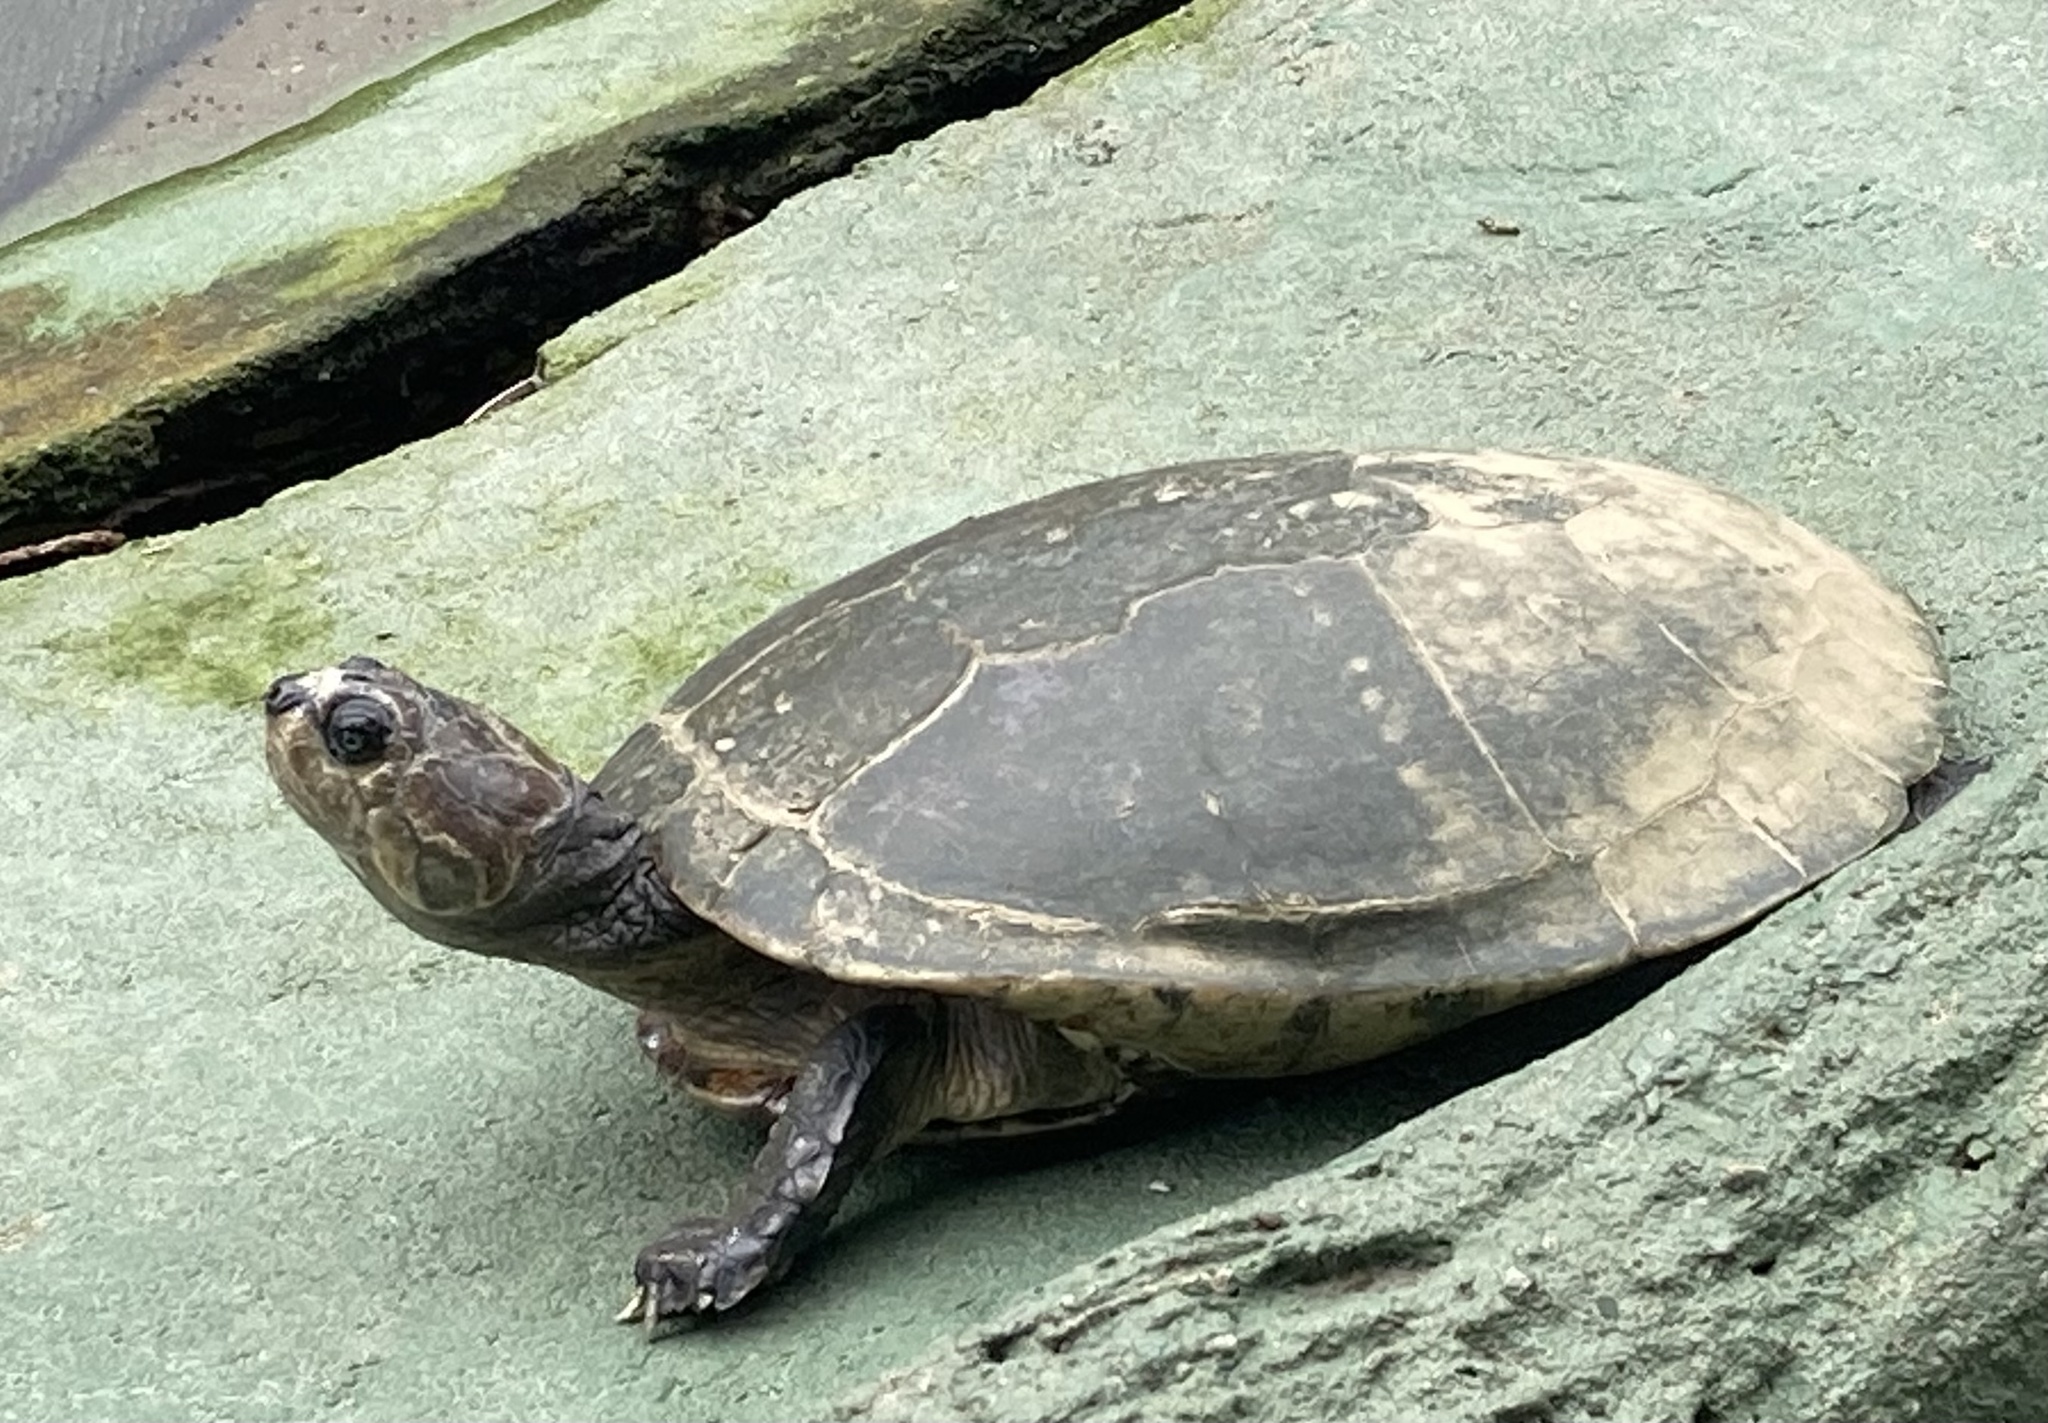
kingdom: Animalia
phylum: Chordata
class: Testudines
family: Podocnemididae
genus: Podocnemis
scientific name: Podocnemis vogli
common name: Savanna side-necked turtle
